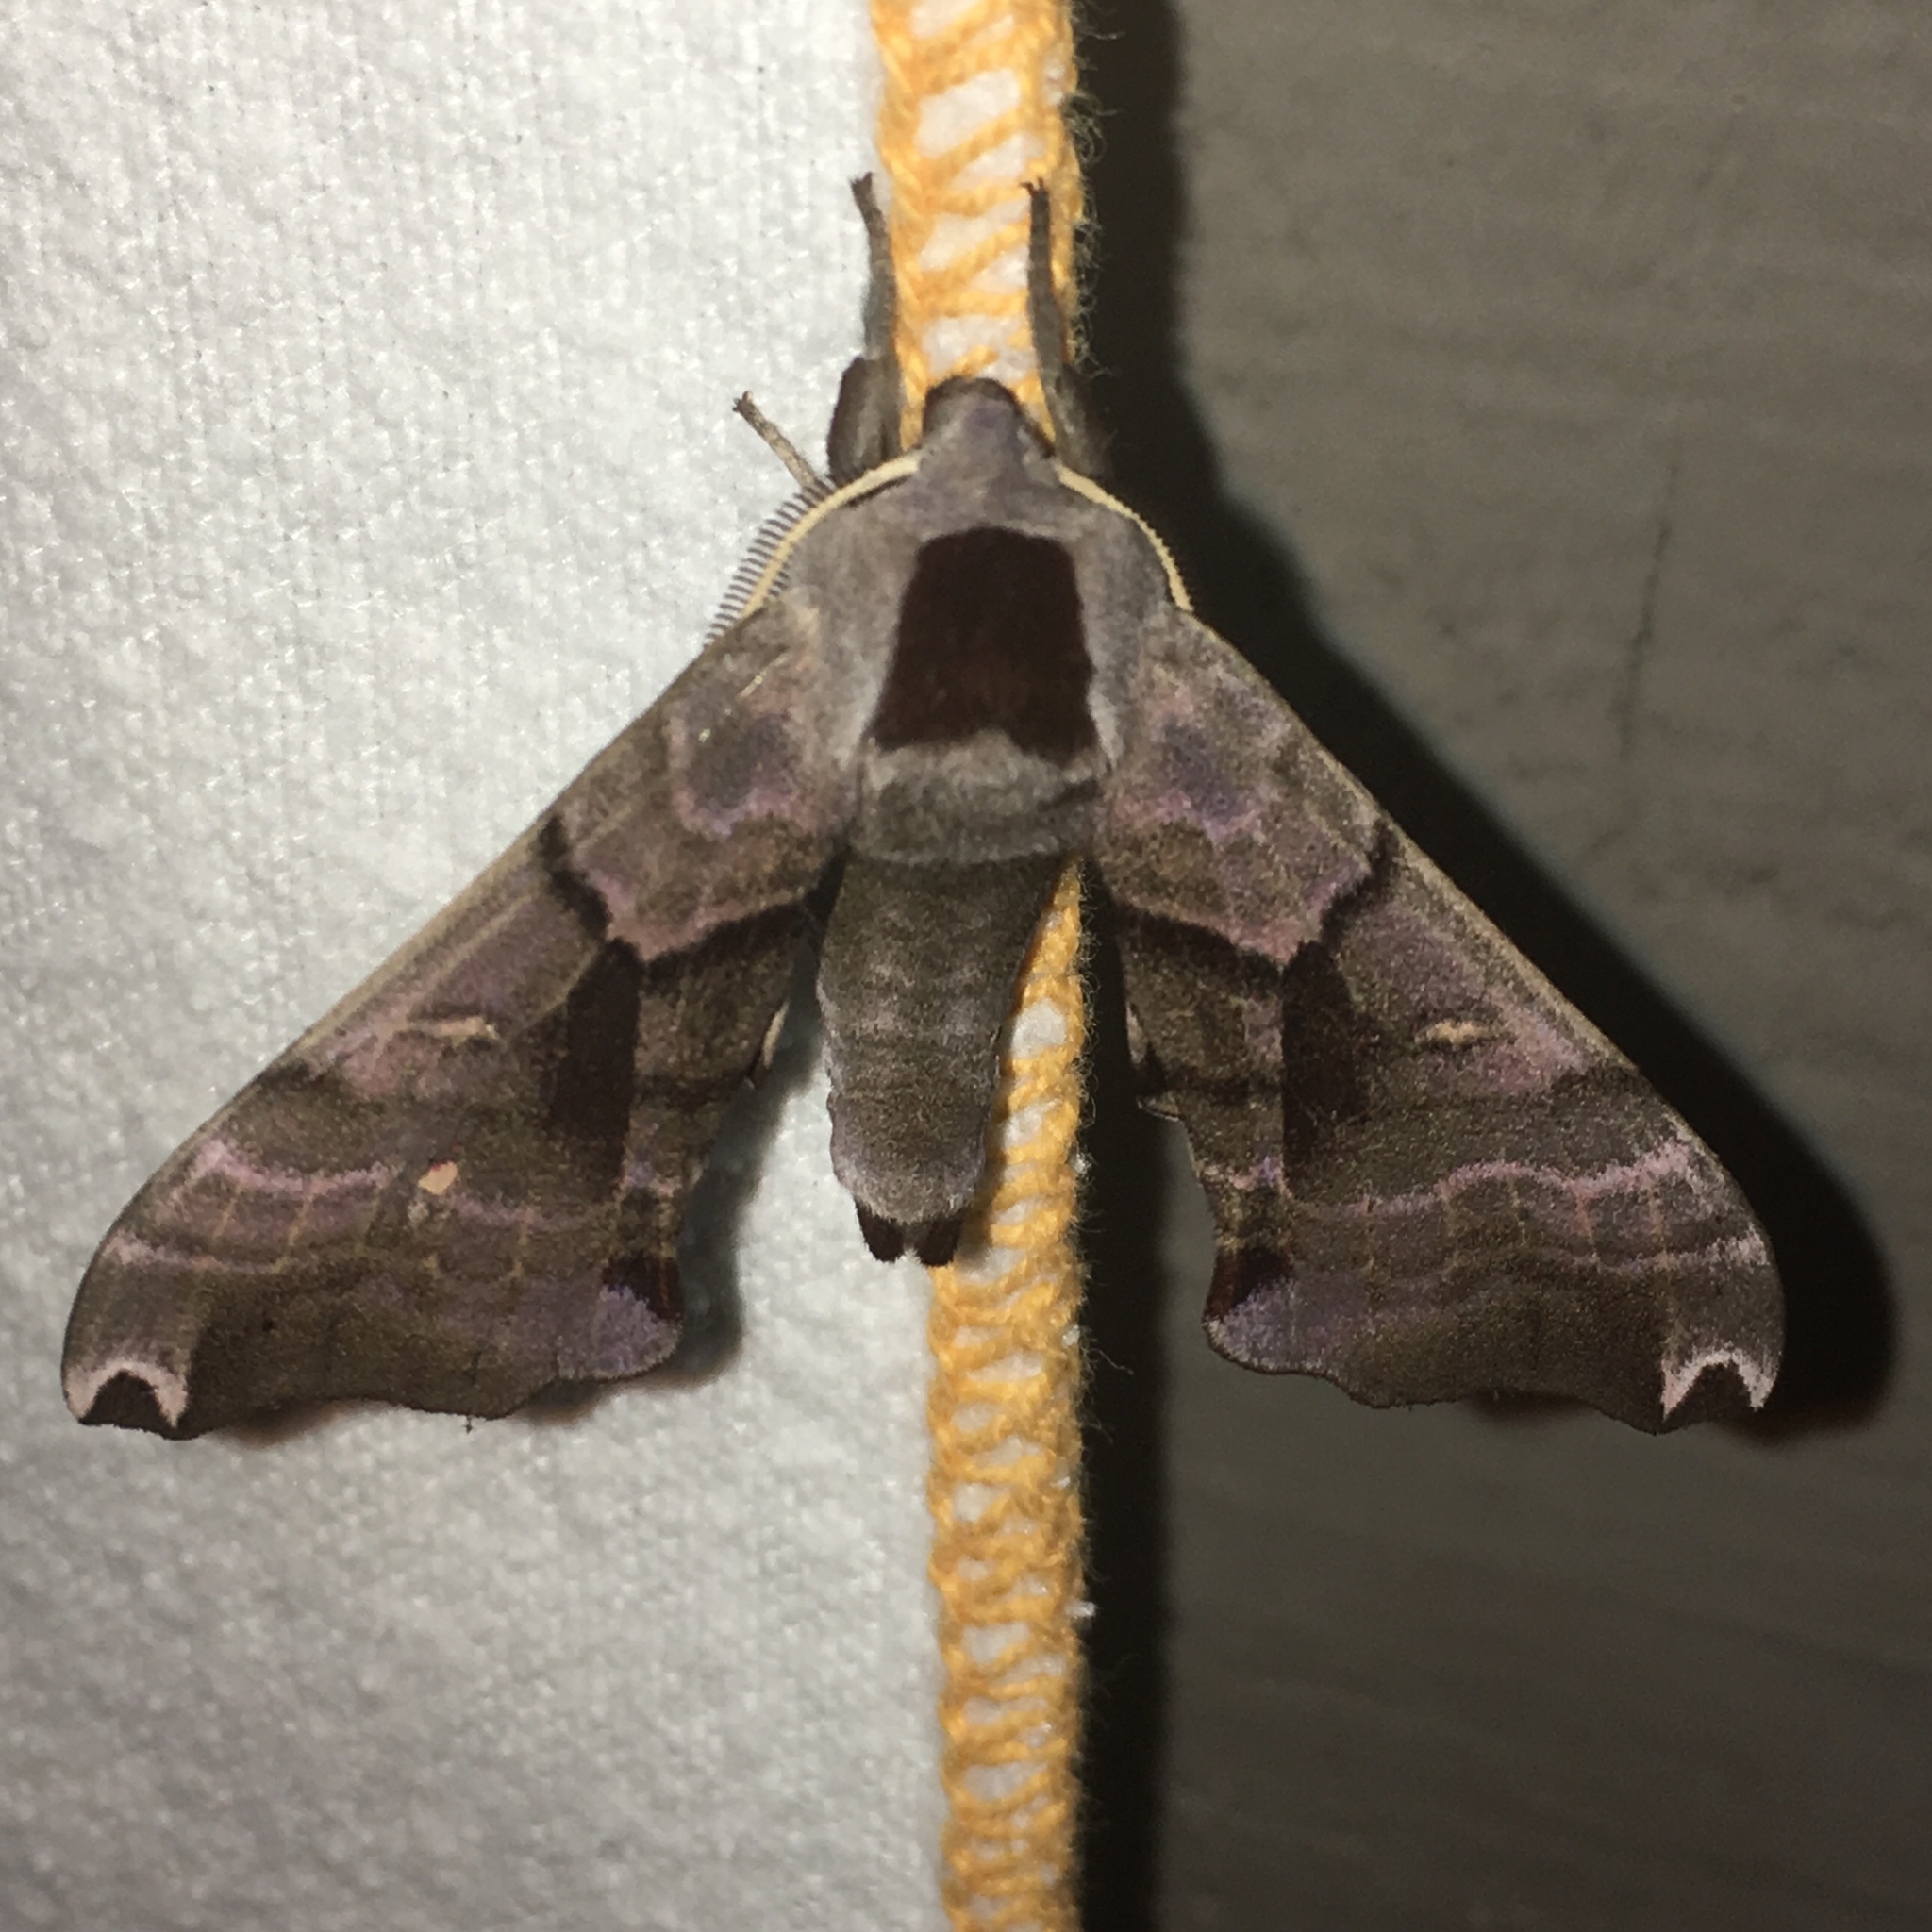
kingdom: Animalia
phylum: Arthropoda
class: Insecta
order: Lepidoptera
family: Sphingidae
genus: Smerinthus
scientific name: Smerinthus jamaicensis
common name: Twin spotted sphinx
